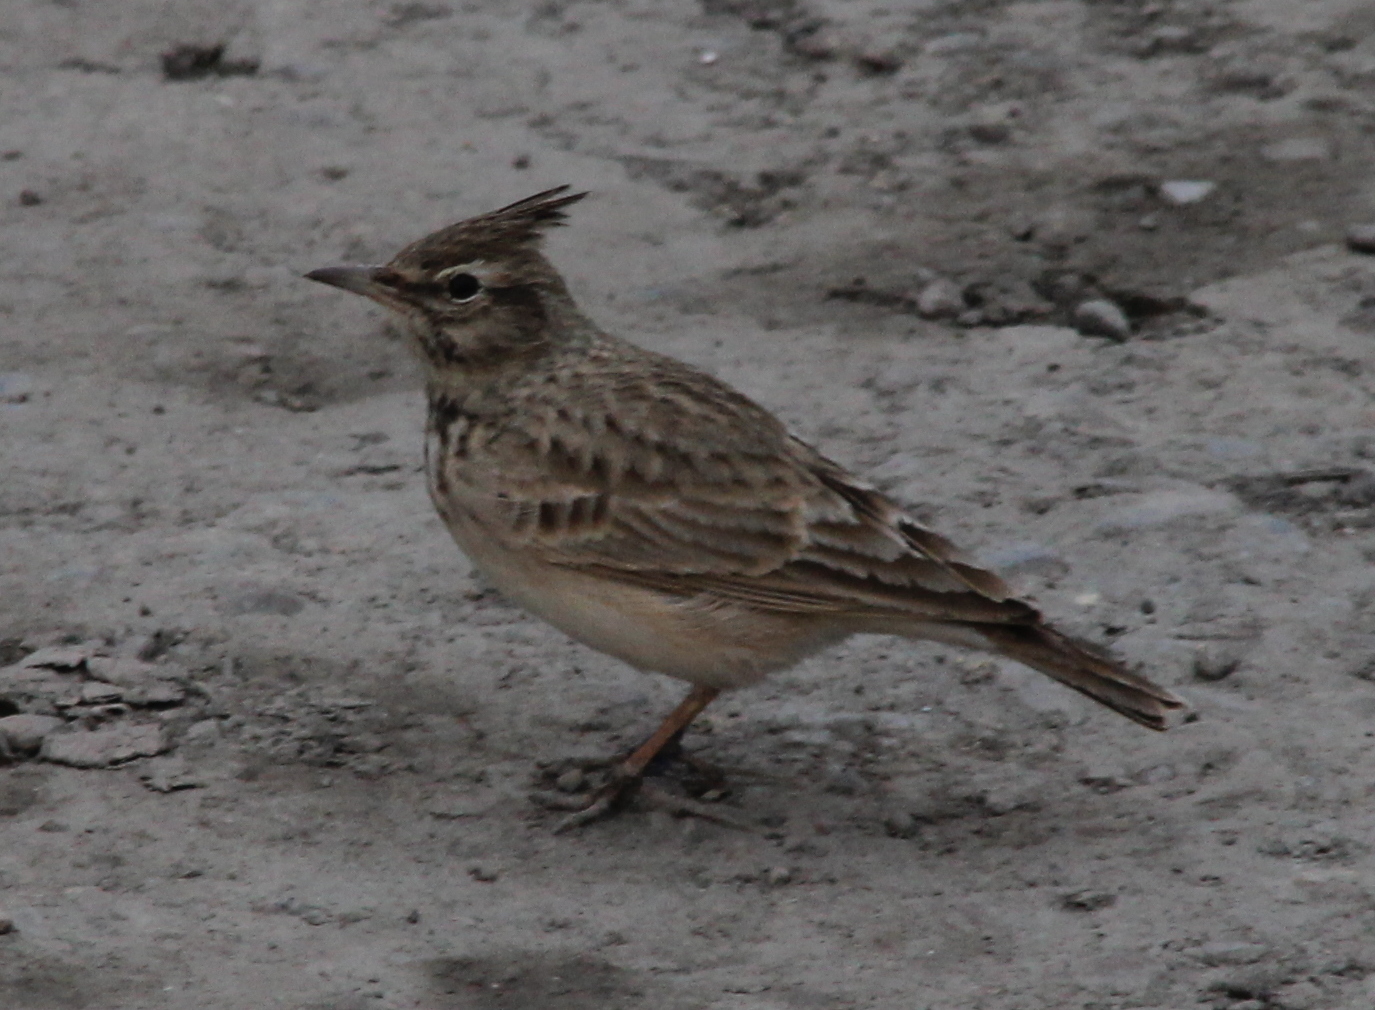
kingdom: Animalia
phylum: Chordata
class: Aves
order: Passeriformes
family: Alaudidae
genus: Galerida
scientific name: Galerida cristata
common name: Crested lark
